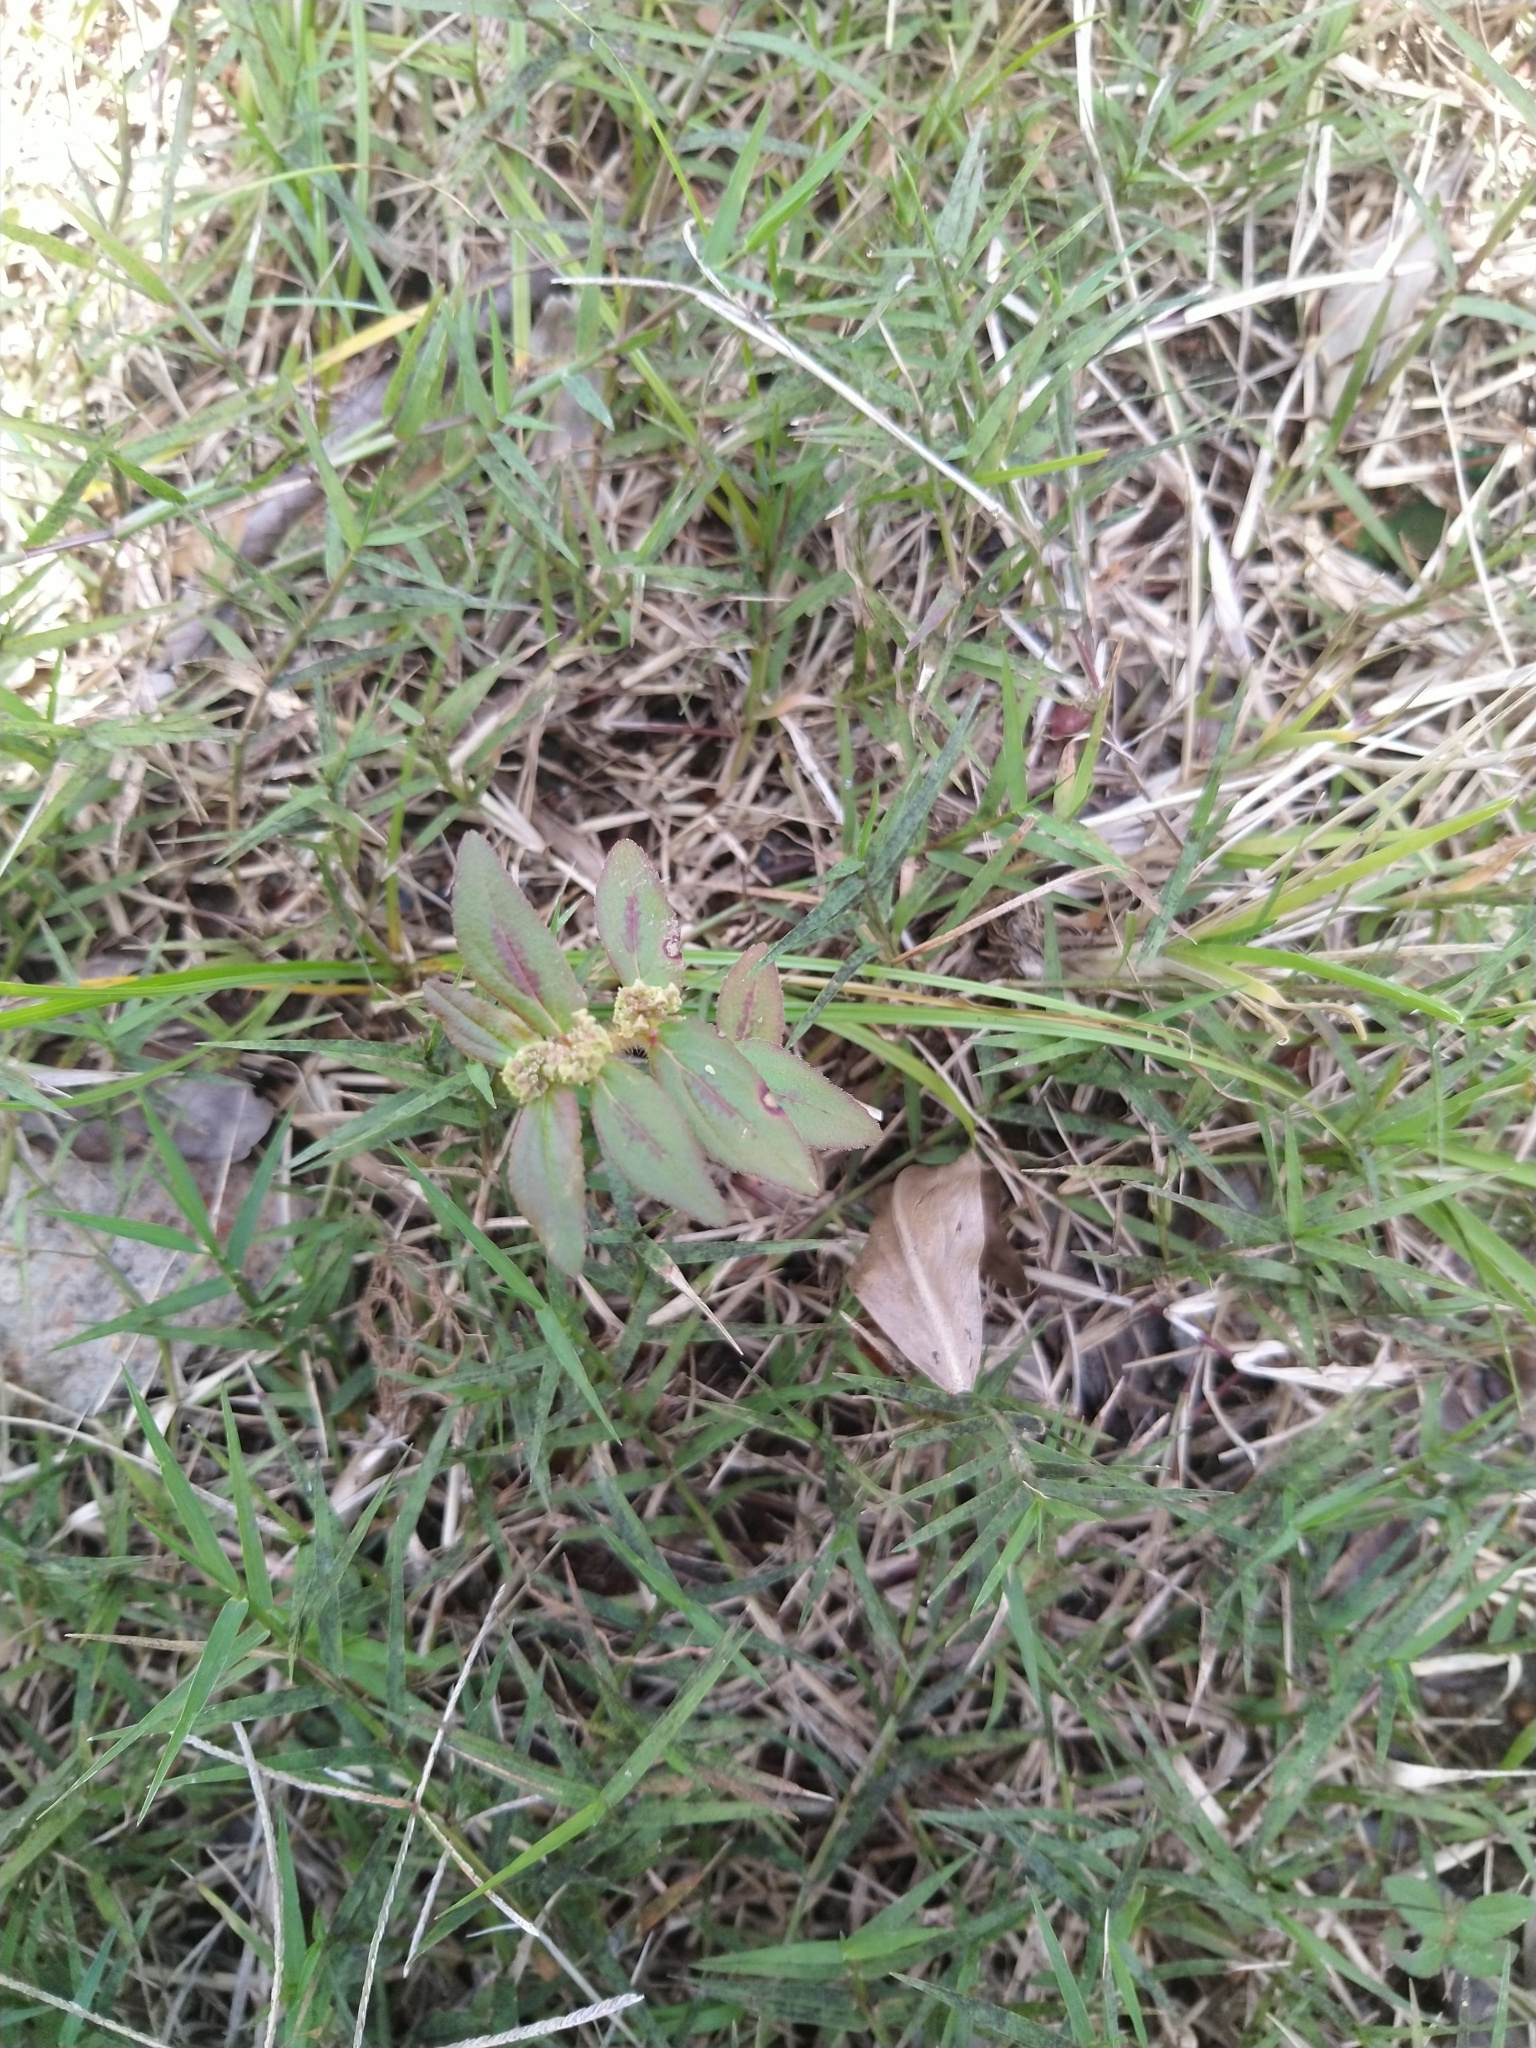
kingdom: Plantae
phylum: Tracheophyta
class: Magnoliopsida
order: Malpighiales
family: Euphorbiaceae
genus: Euphorbia
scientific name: Euphorbia hirta
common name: Pillpod sandmat
